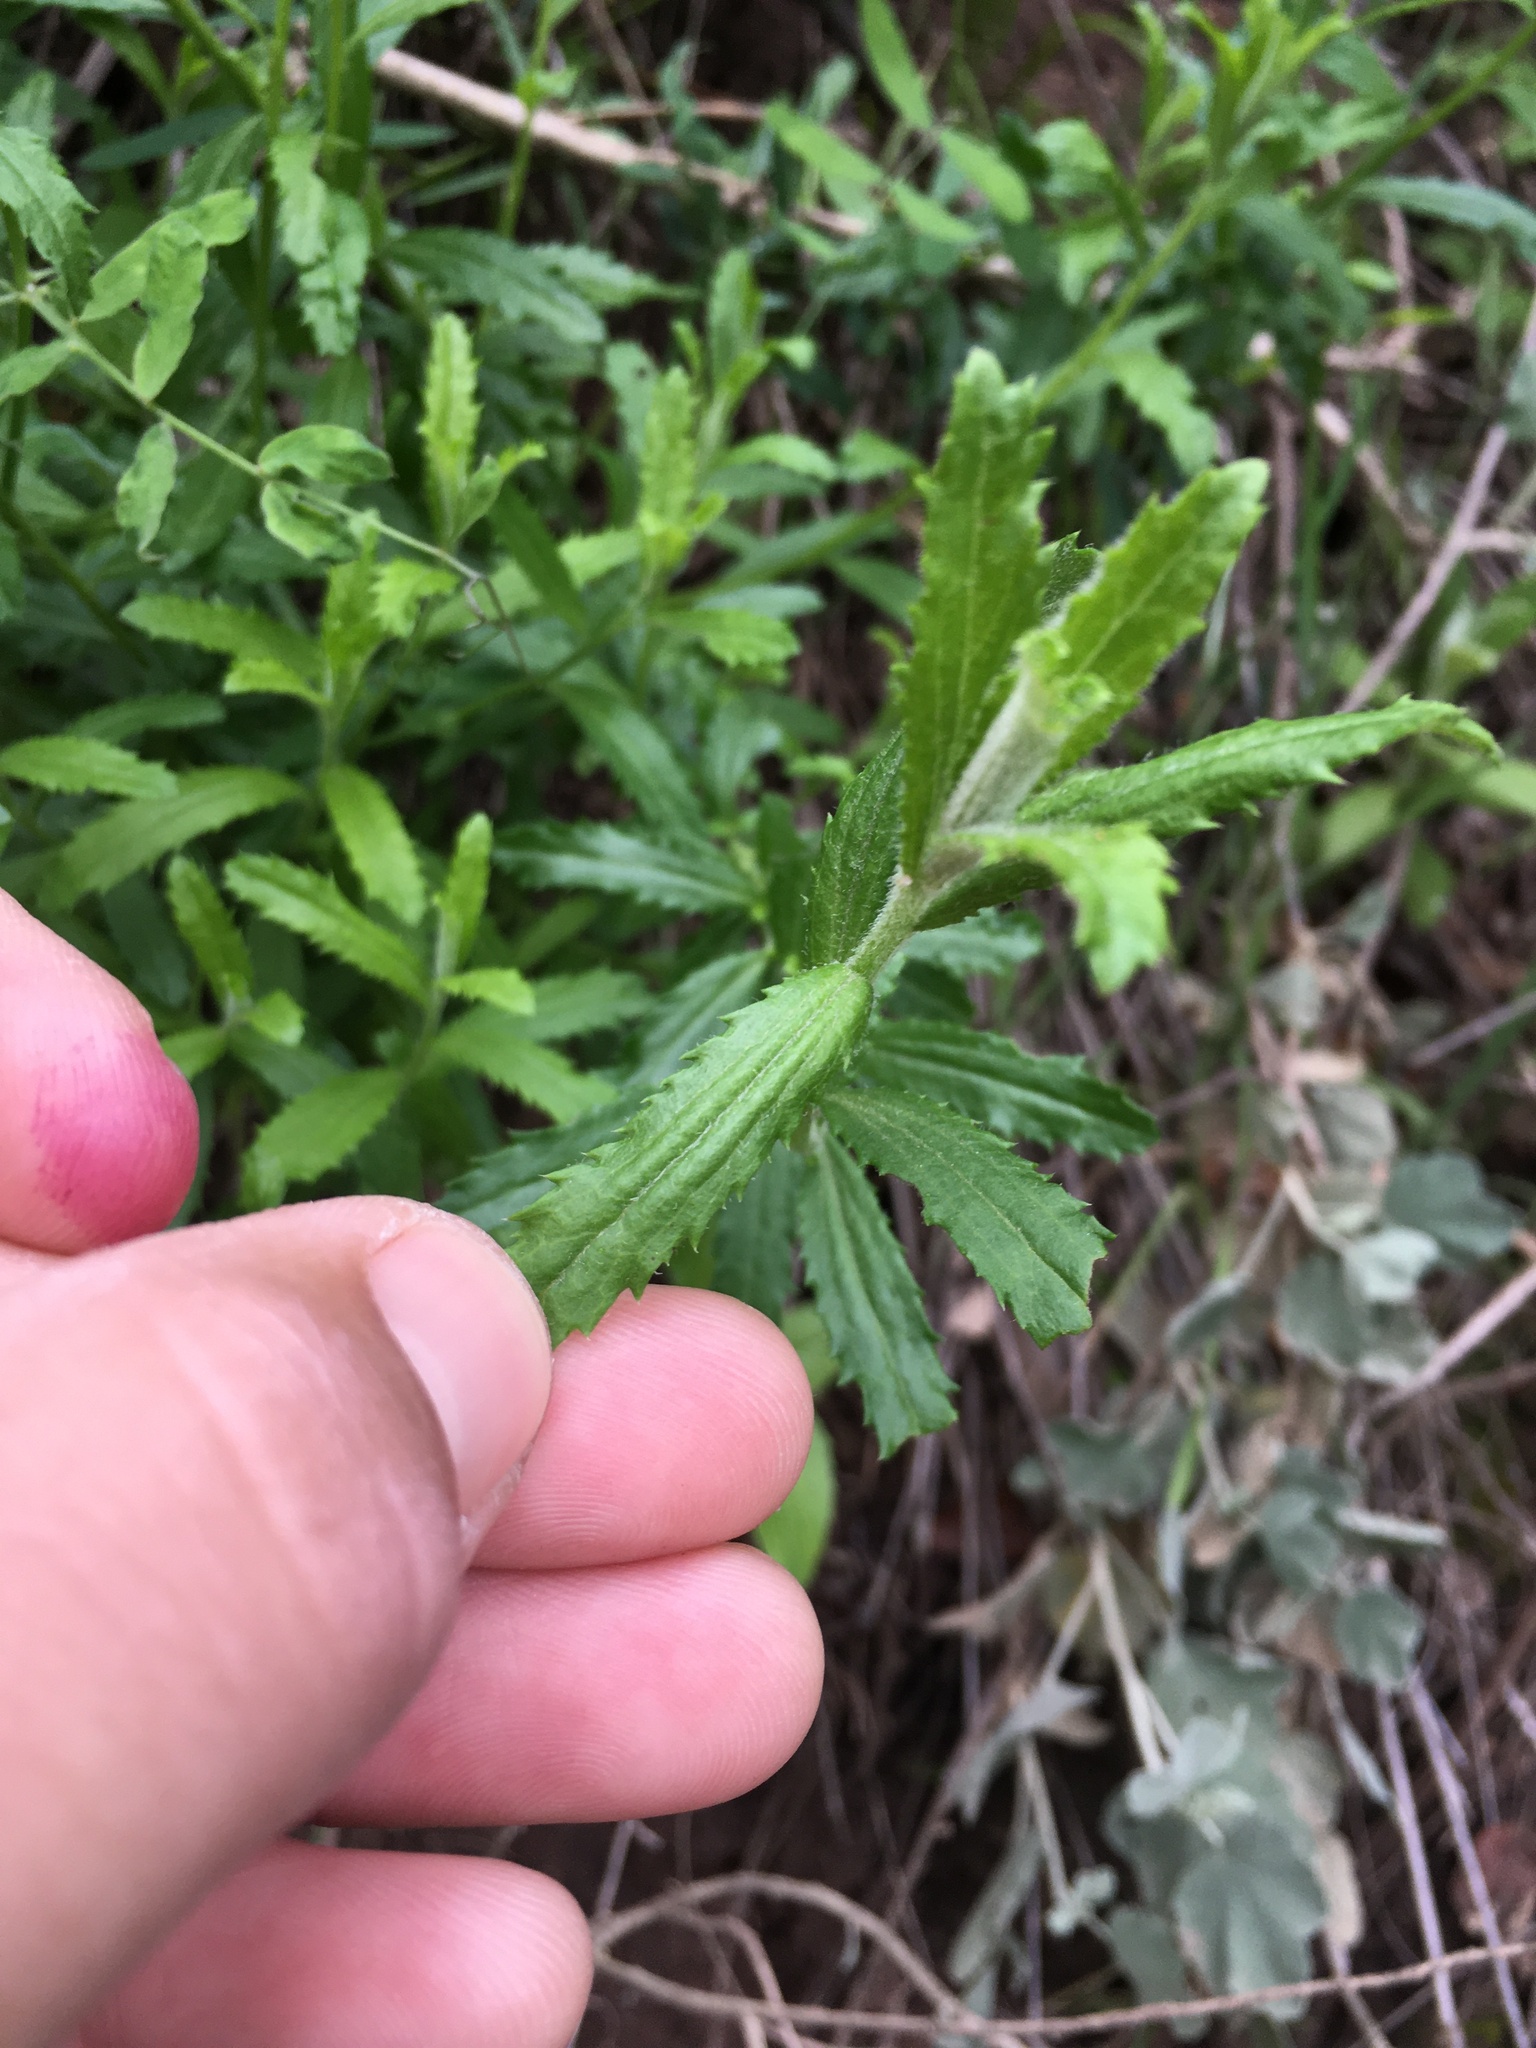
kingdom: Plantae
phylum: Tracheophyta
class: Magnoliopsida
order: Asterales
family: Asteraceae
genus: Baccharis
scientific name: Baccharis plummerae
